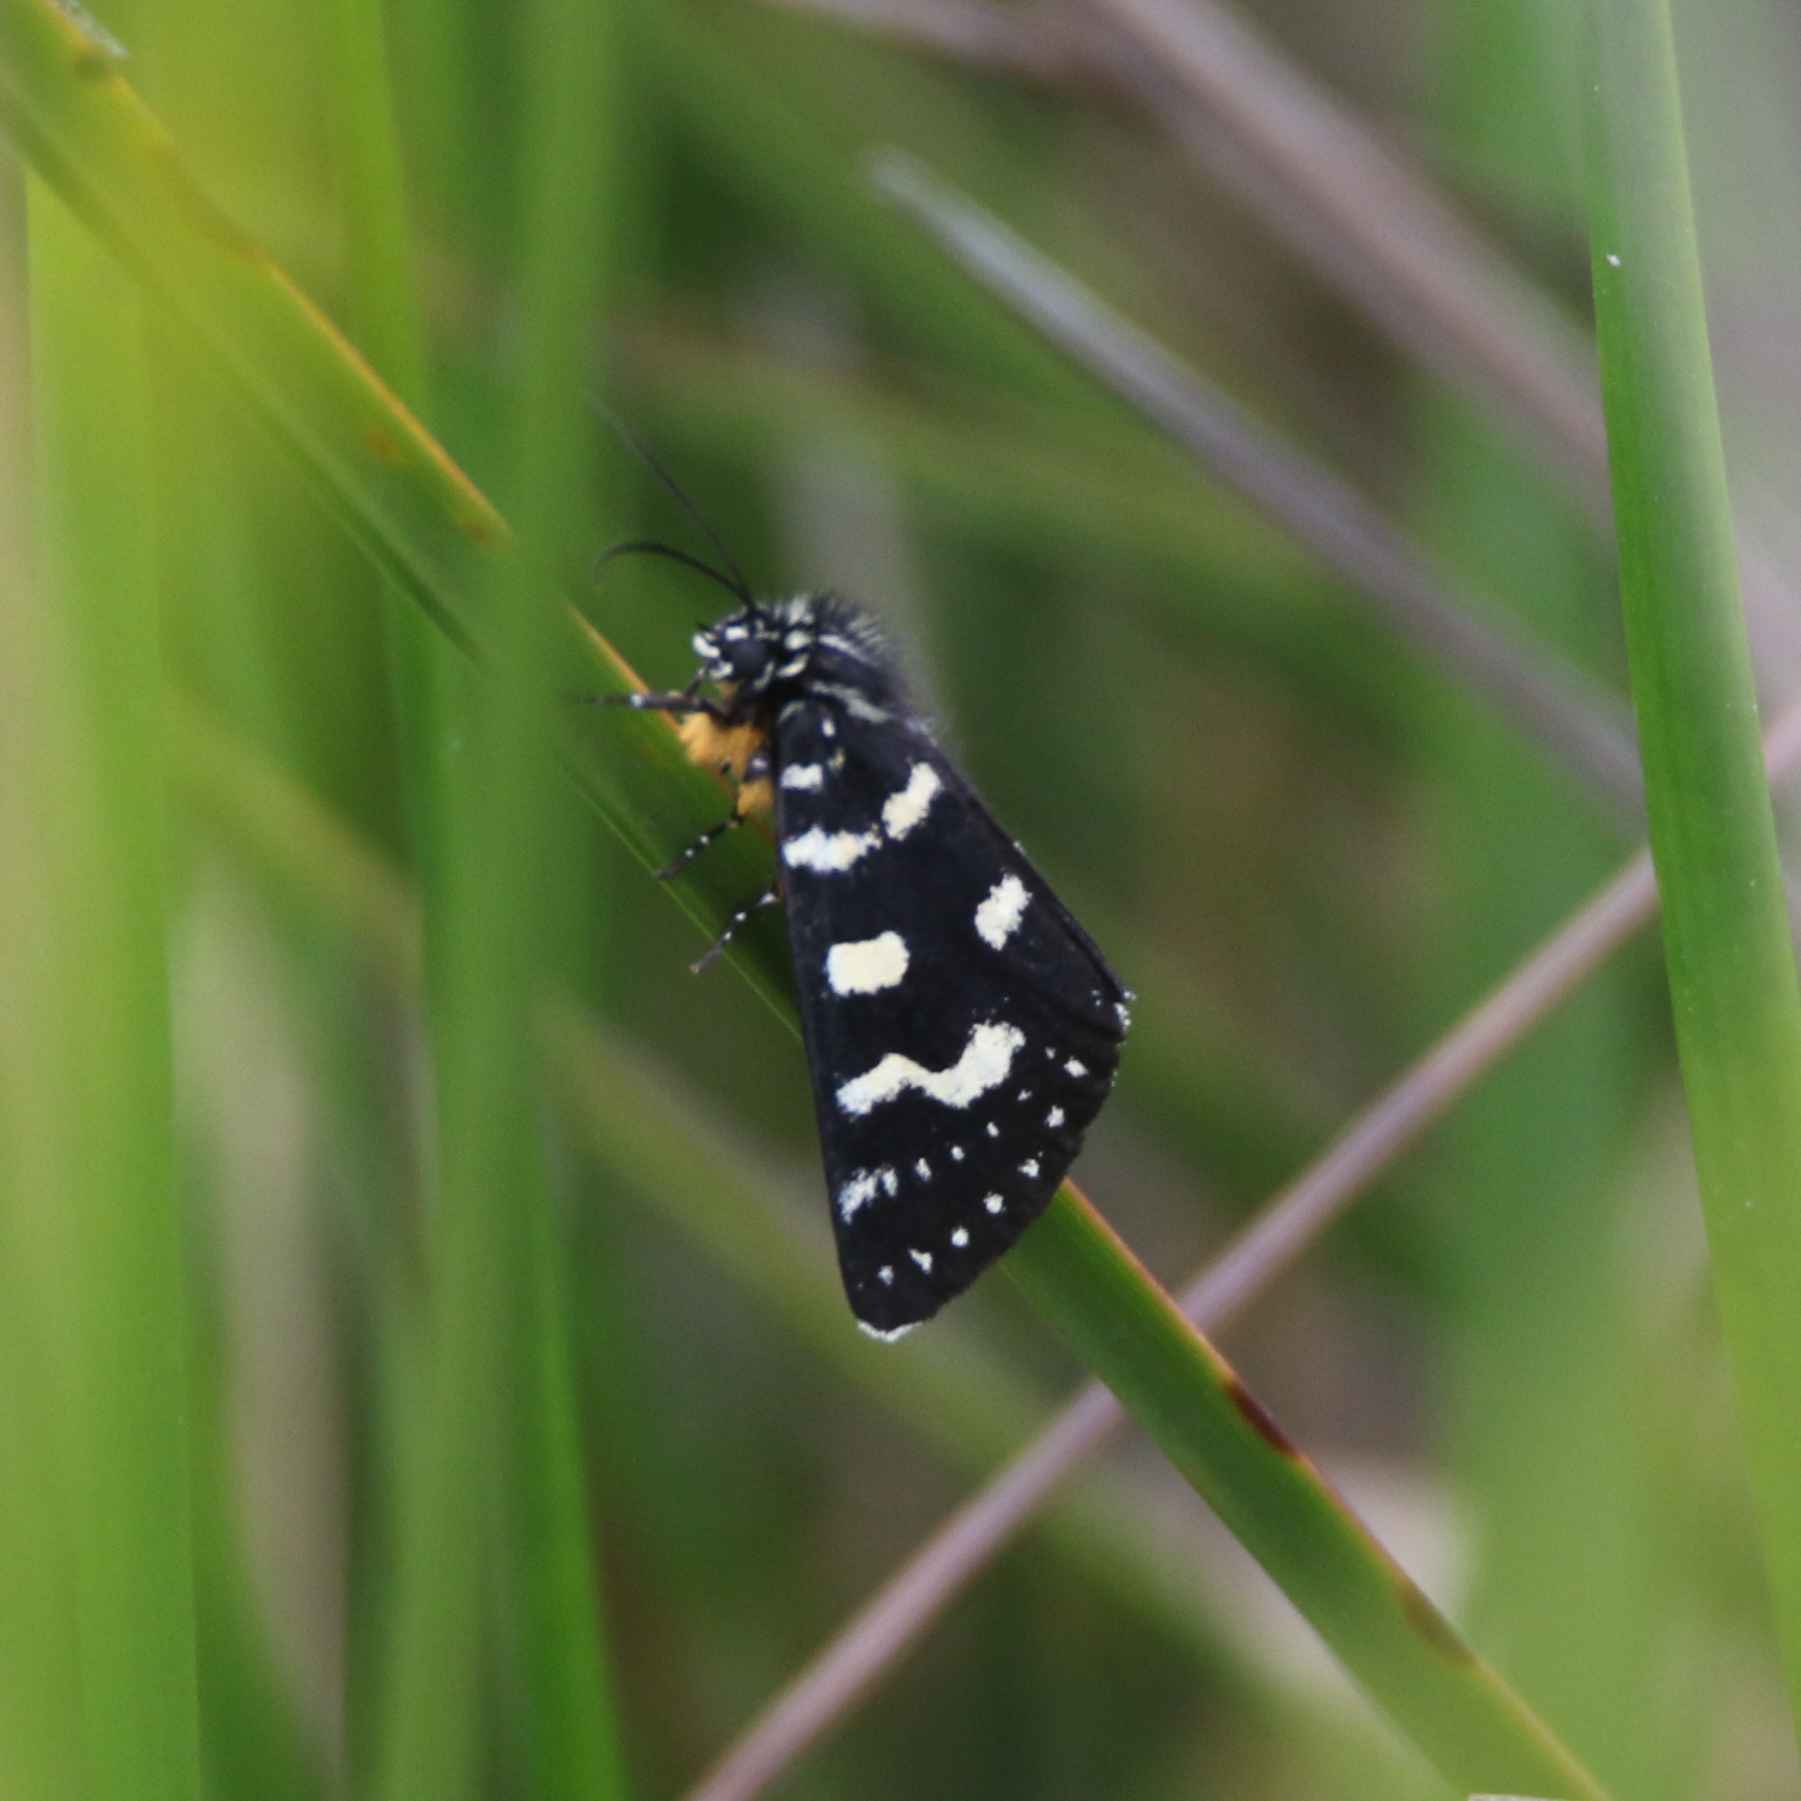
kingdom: Animalia
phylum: Arthropoda
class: Insecta
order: Lepidoptera
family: Noctuidae
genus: Phalaenoides
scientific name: Phalaenoides tristifica
